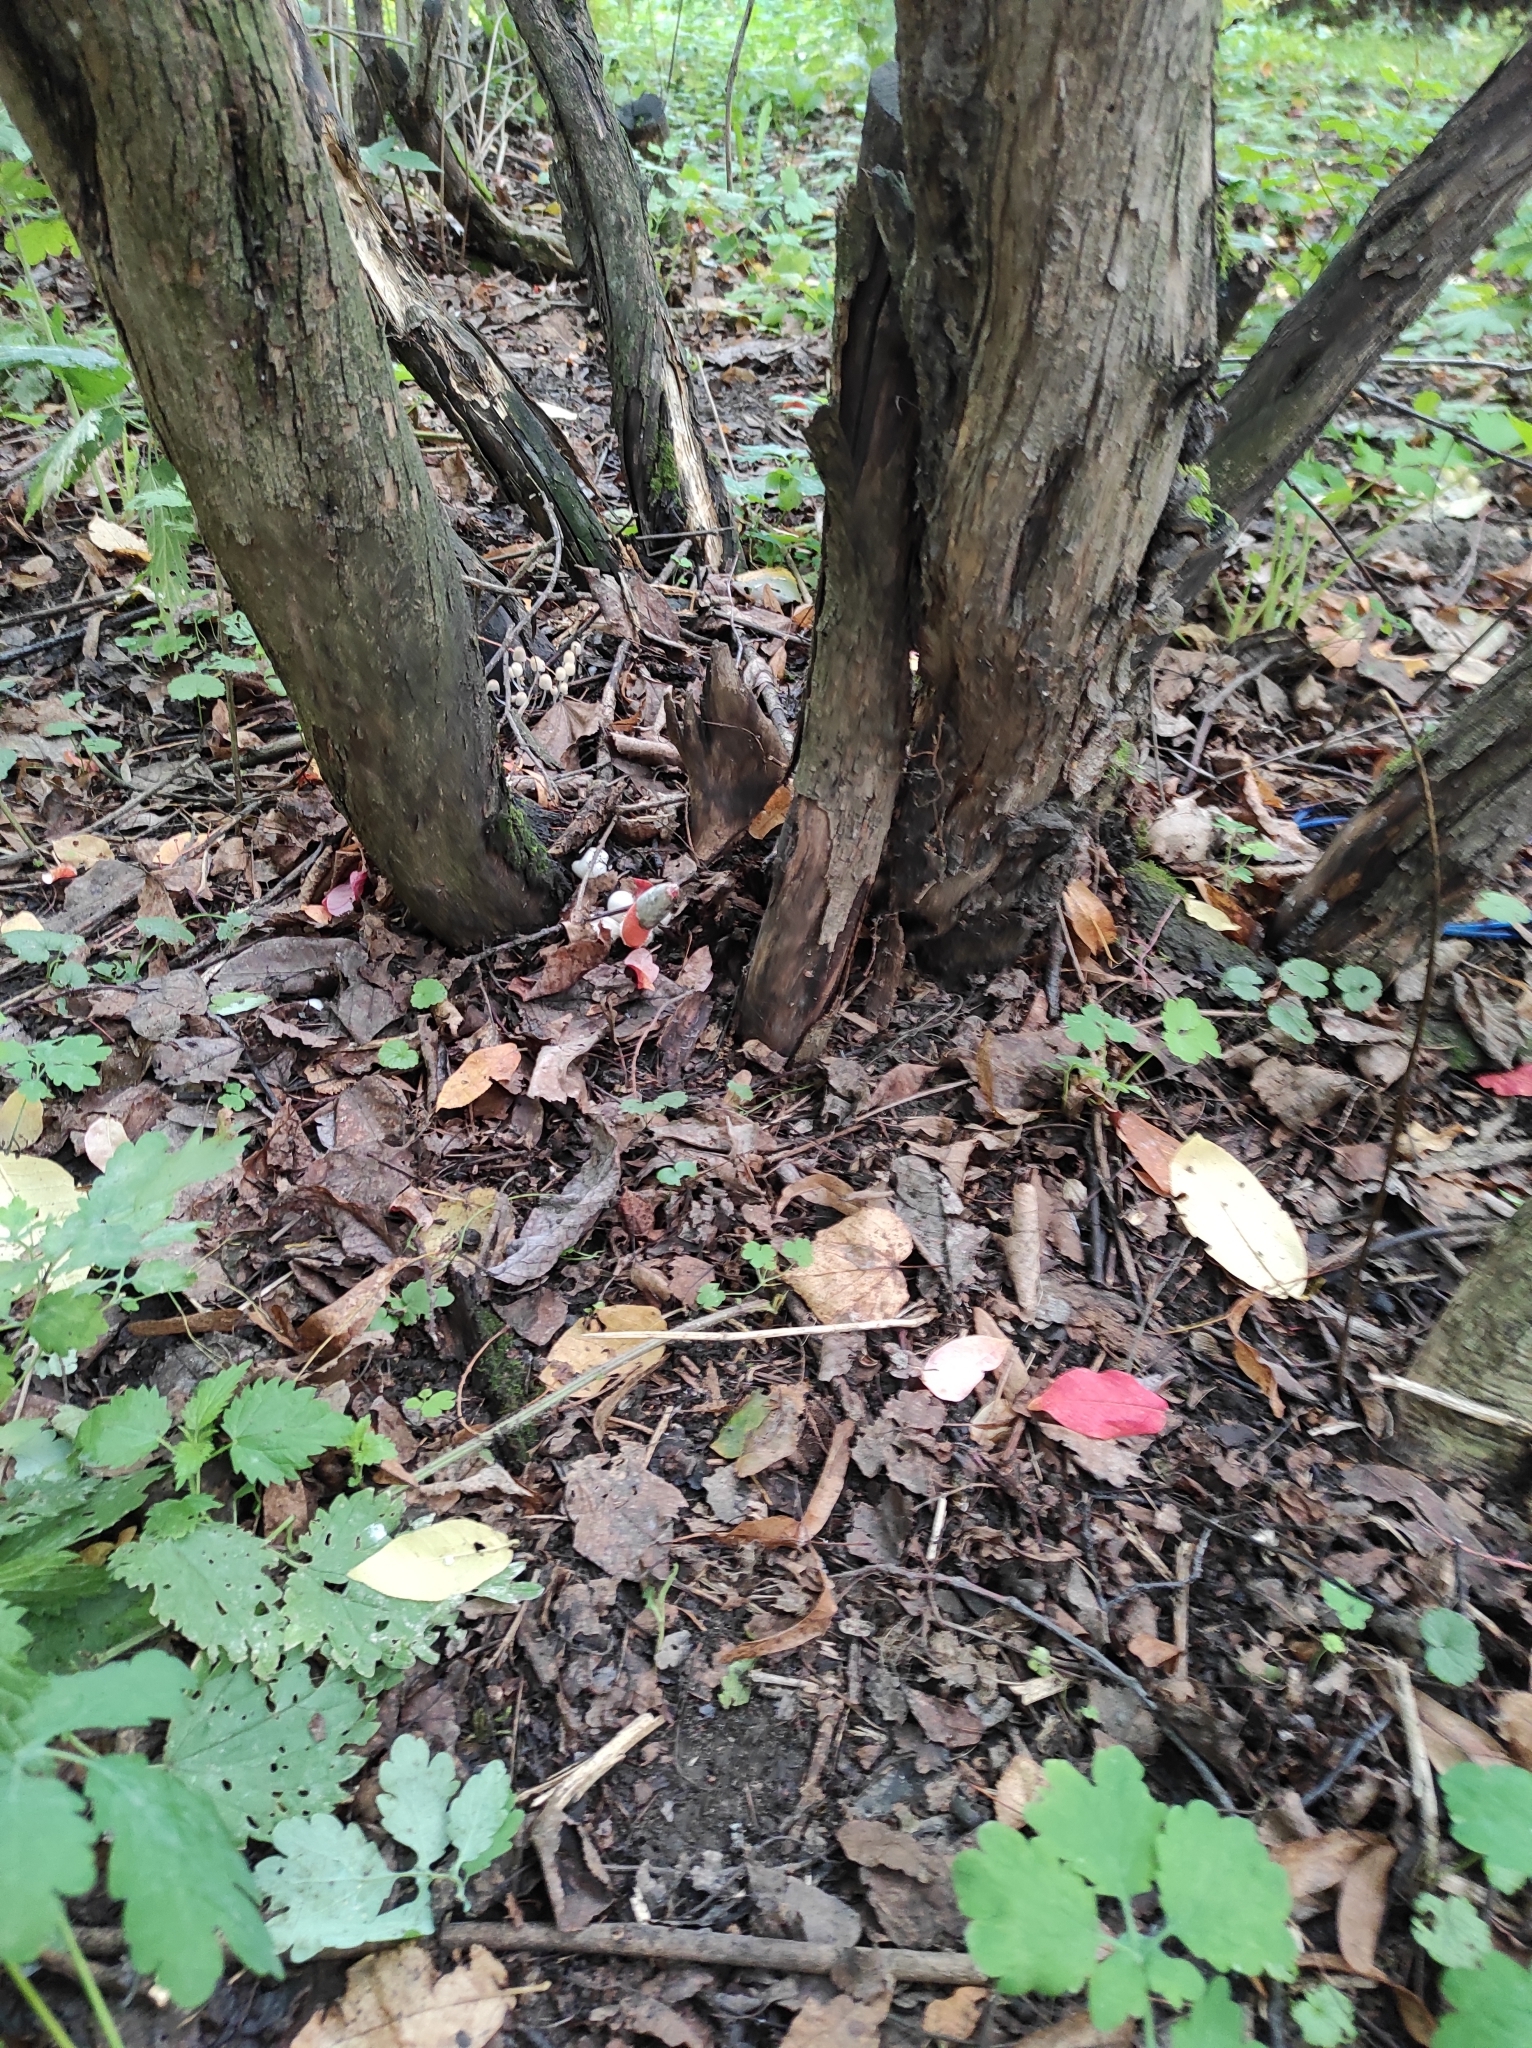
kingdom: Fungi
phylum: Basidiomycota
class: Agaricomycetes
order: Phallales
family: Phallaceae
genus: Mutinus
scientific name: Mutinus caninus
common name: Dog stinkhorn
